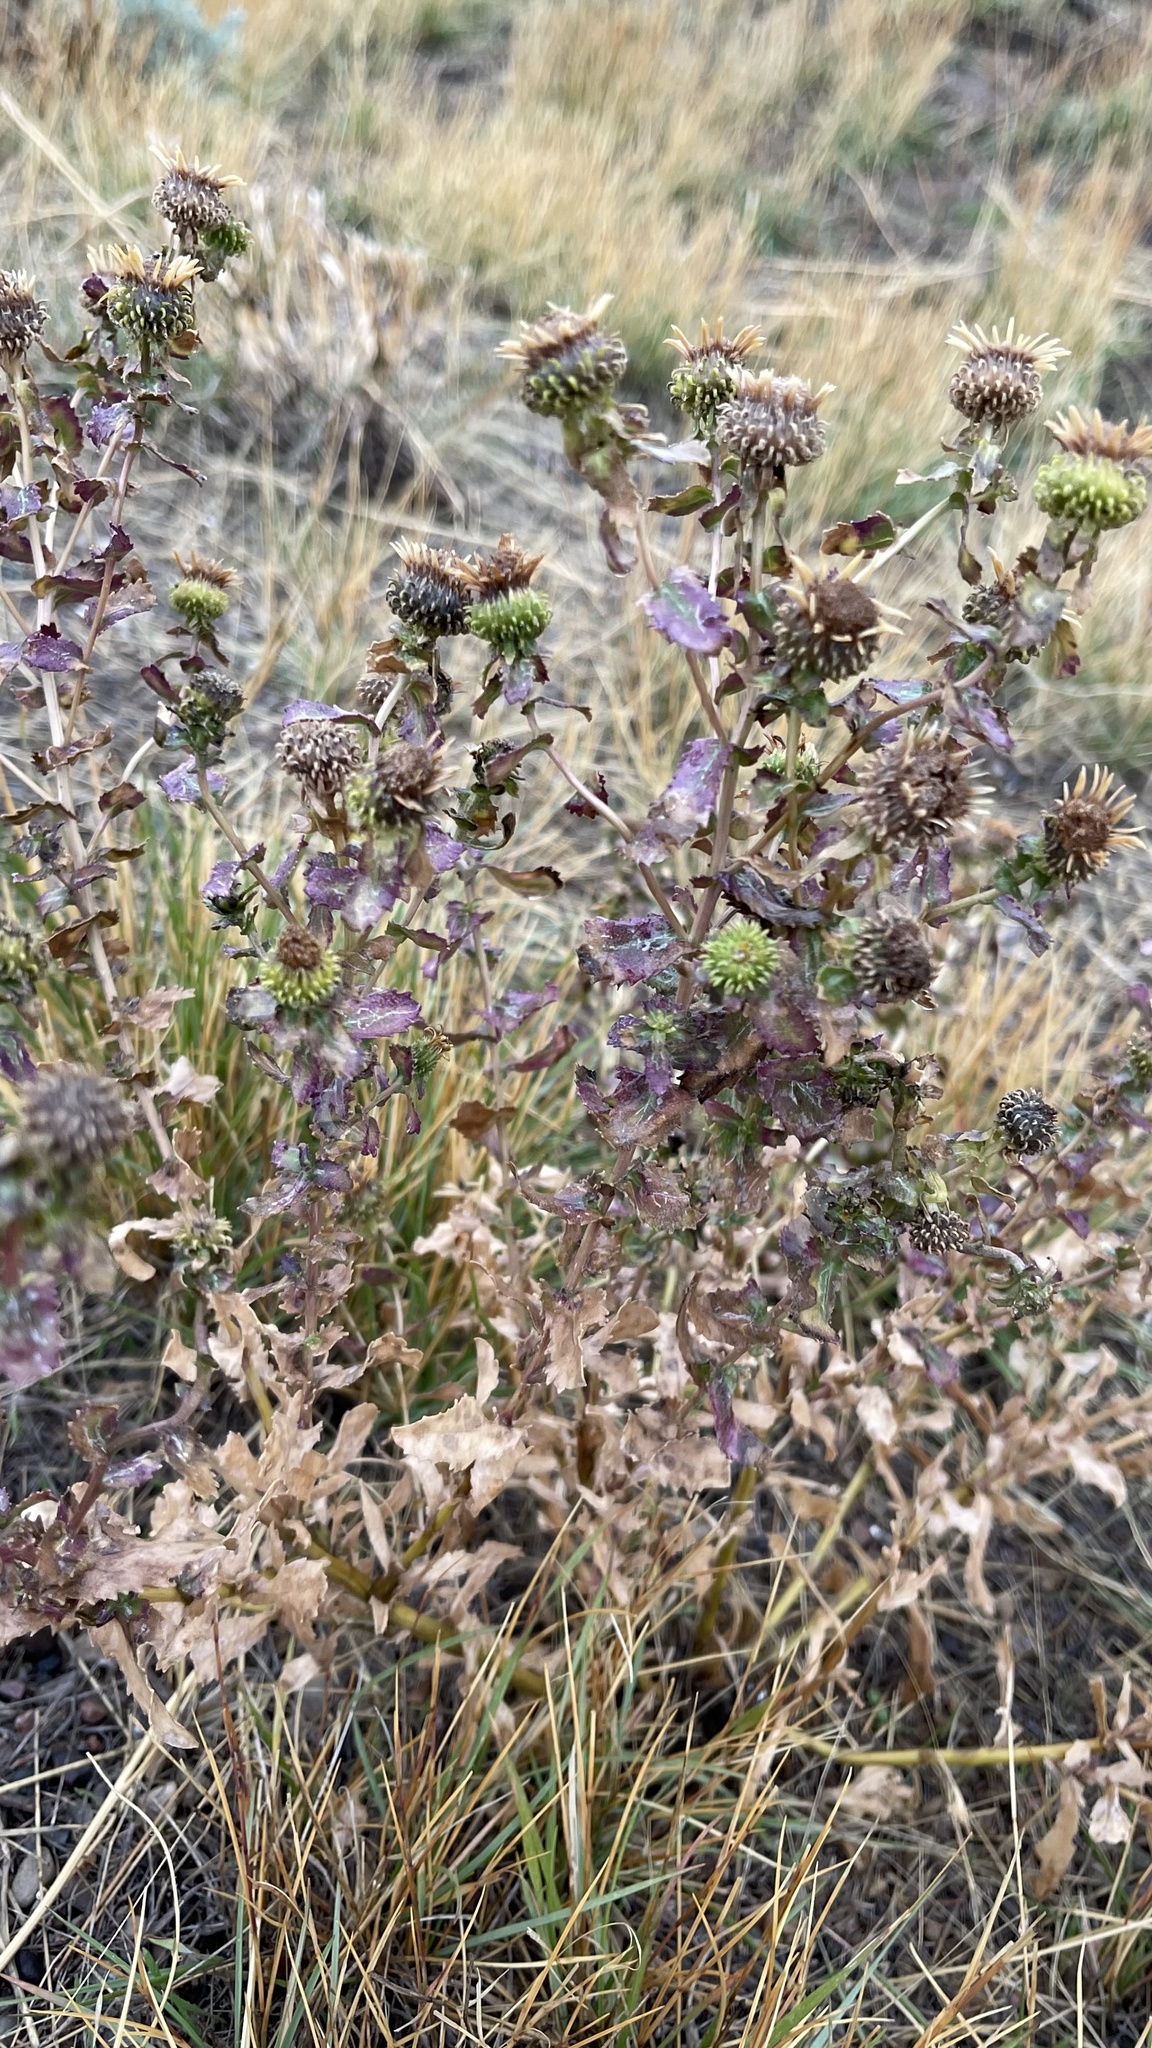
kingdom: Plantae
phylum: Tracheophyta
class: Magnoliopsida
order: Asterales
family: Asteraceae
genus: Grindelia
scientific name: Grindelia squarrosa
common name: Curly-cup gumweed
